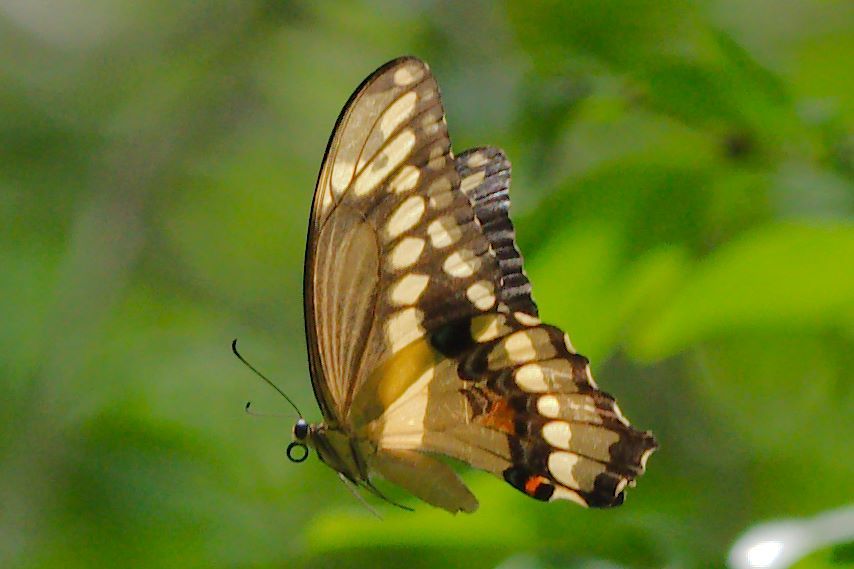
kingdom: Animalia
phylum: Arthropoda
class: Insecta
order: Lepidoptera
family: Papilionidae
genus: Papilio
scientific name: Papilio cresphontes
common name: Giant swallowtail
